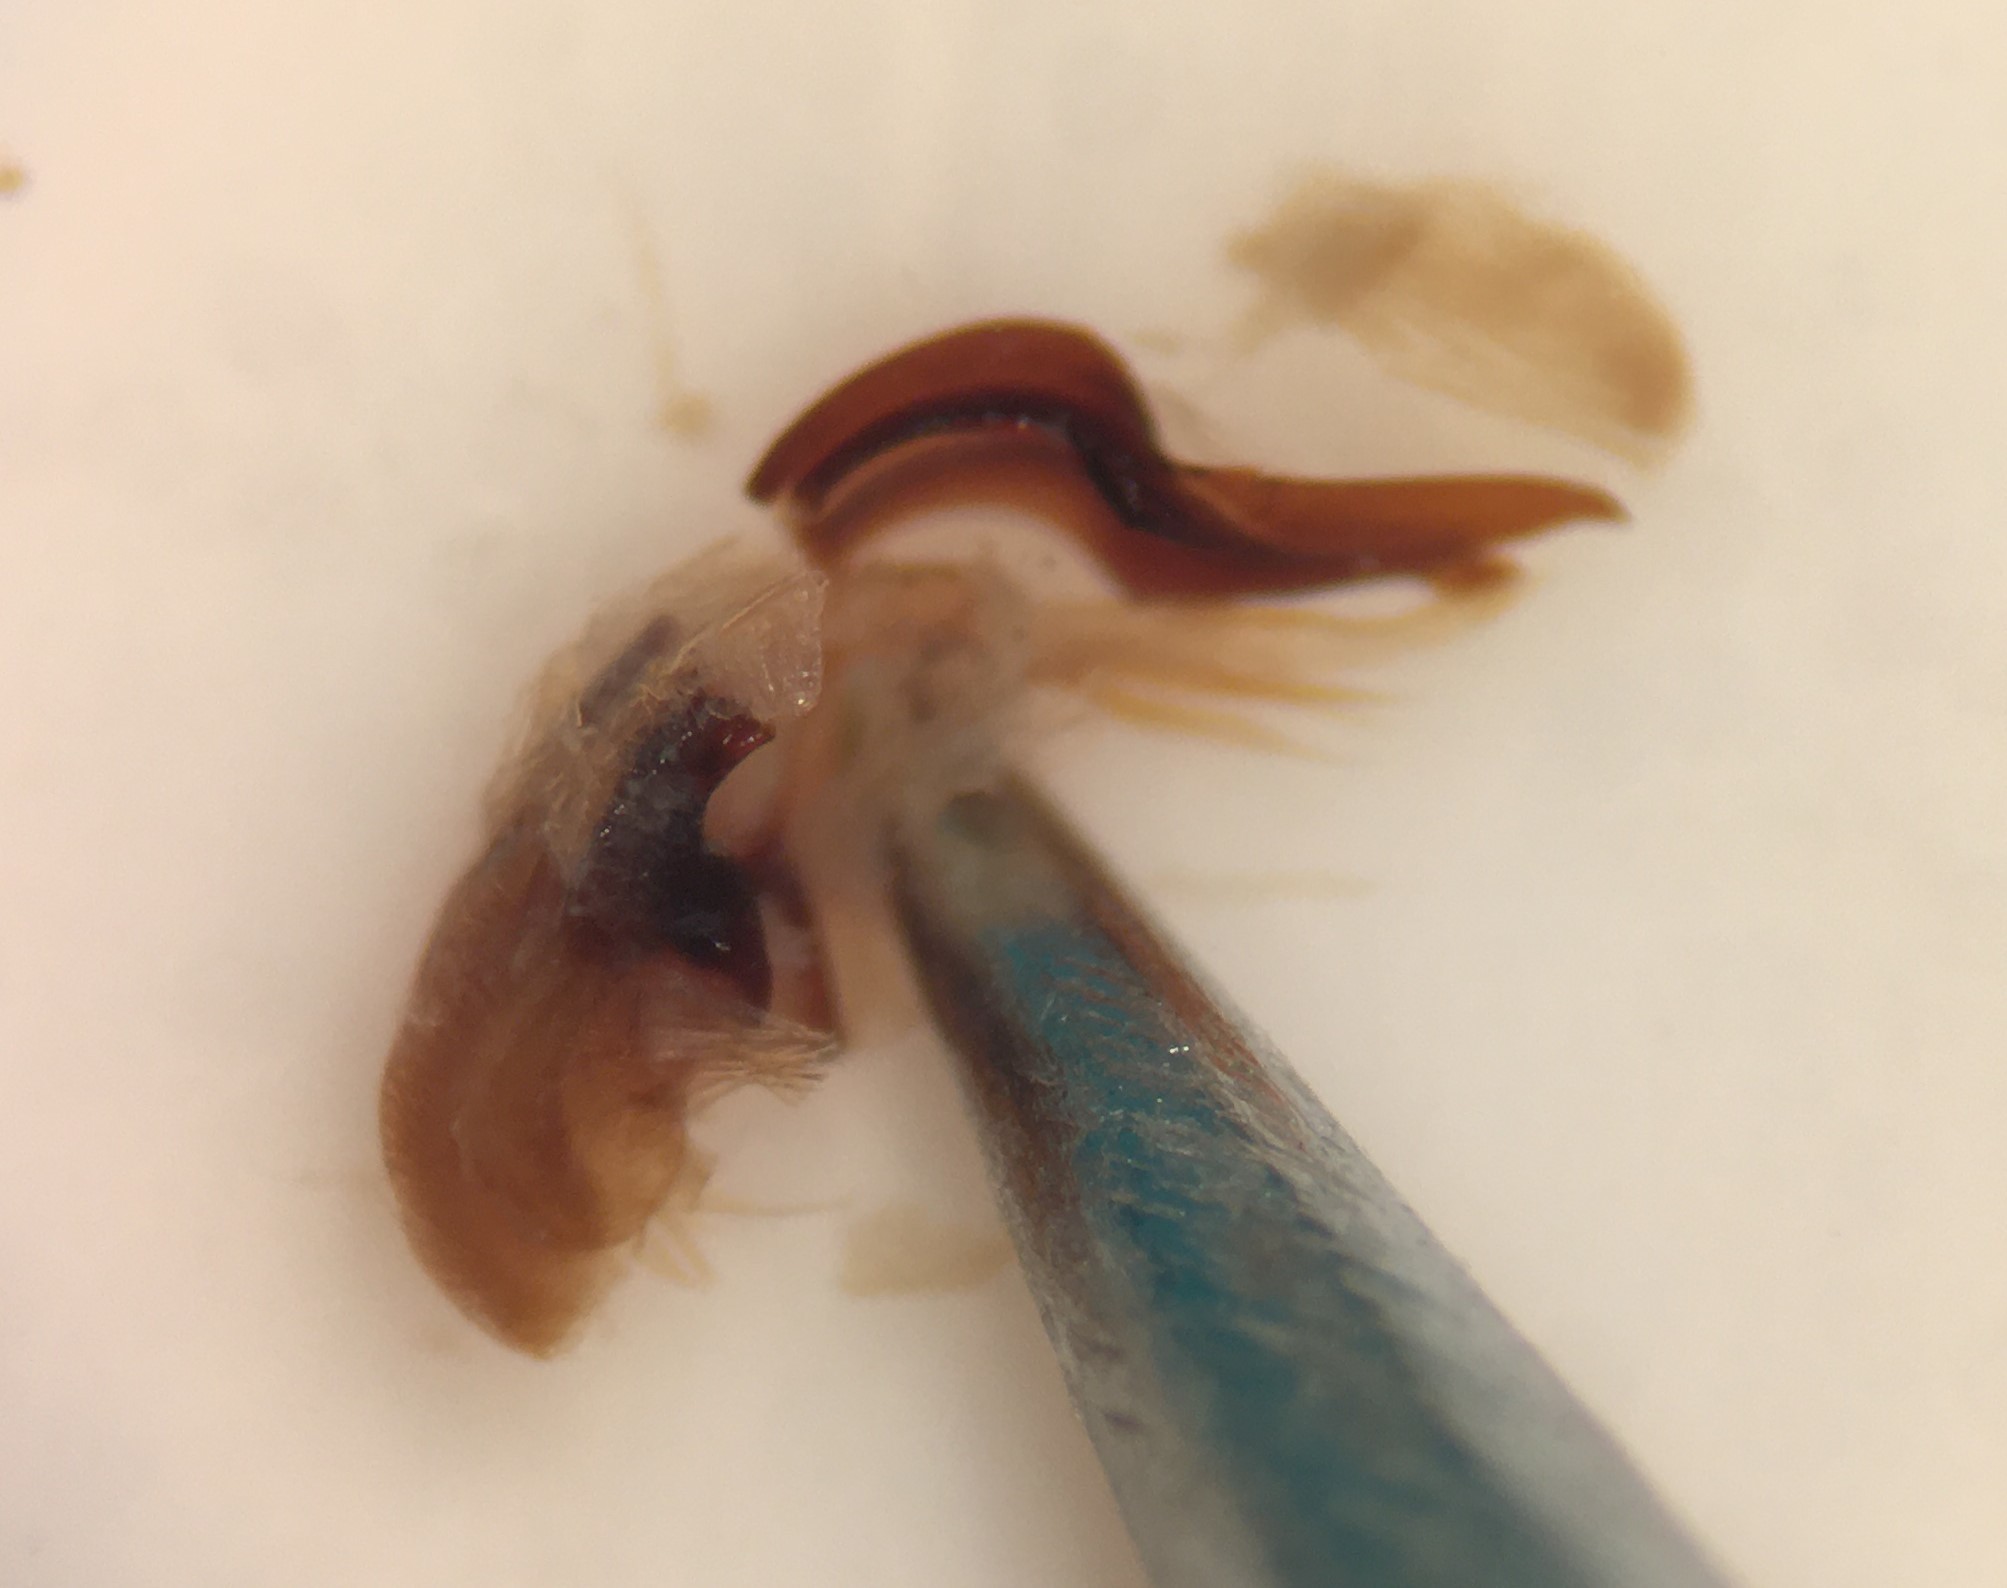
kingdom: Animalia
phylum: Arthropoda
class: Insecta
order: Coleoptera
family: Dytiscidae
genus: Matus
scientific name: Matus ovatus
